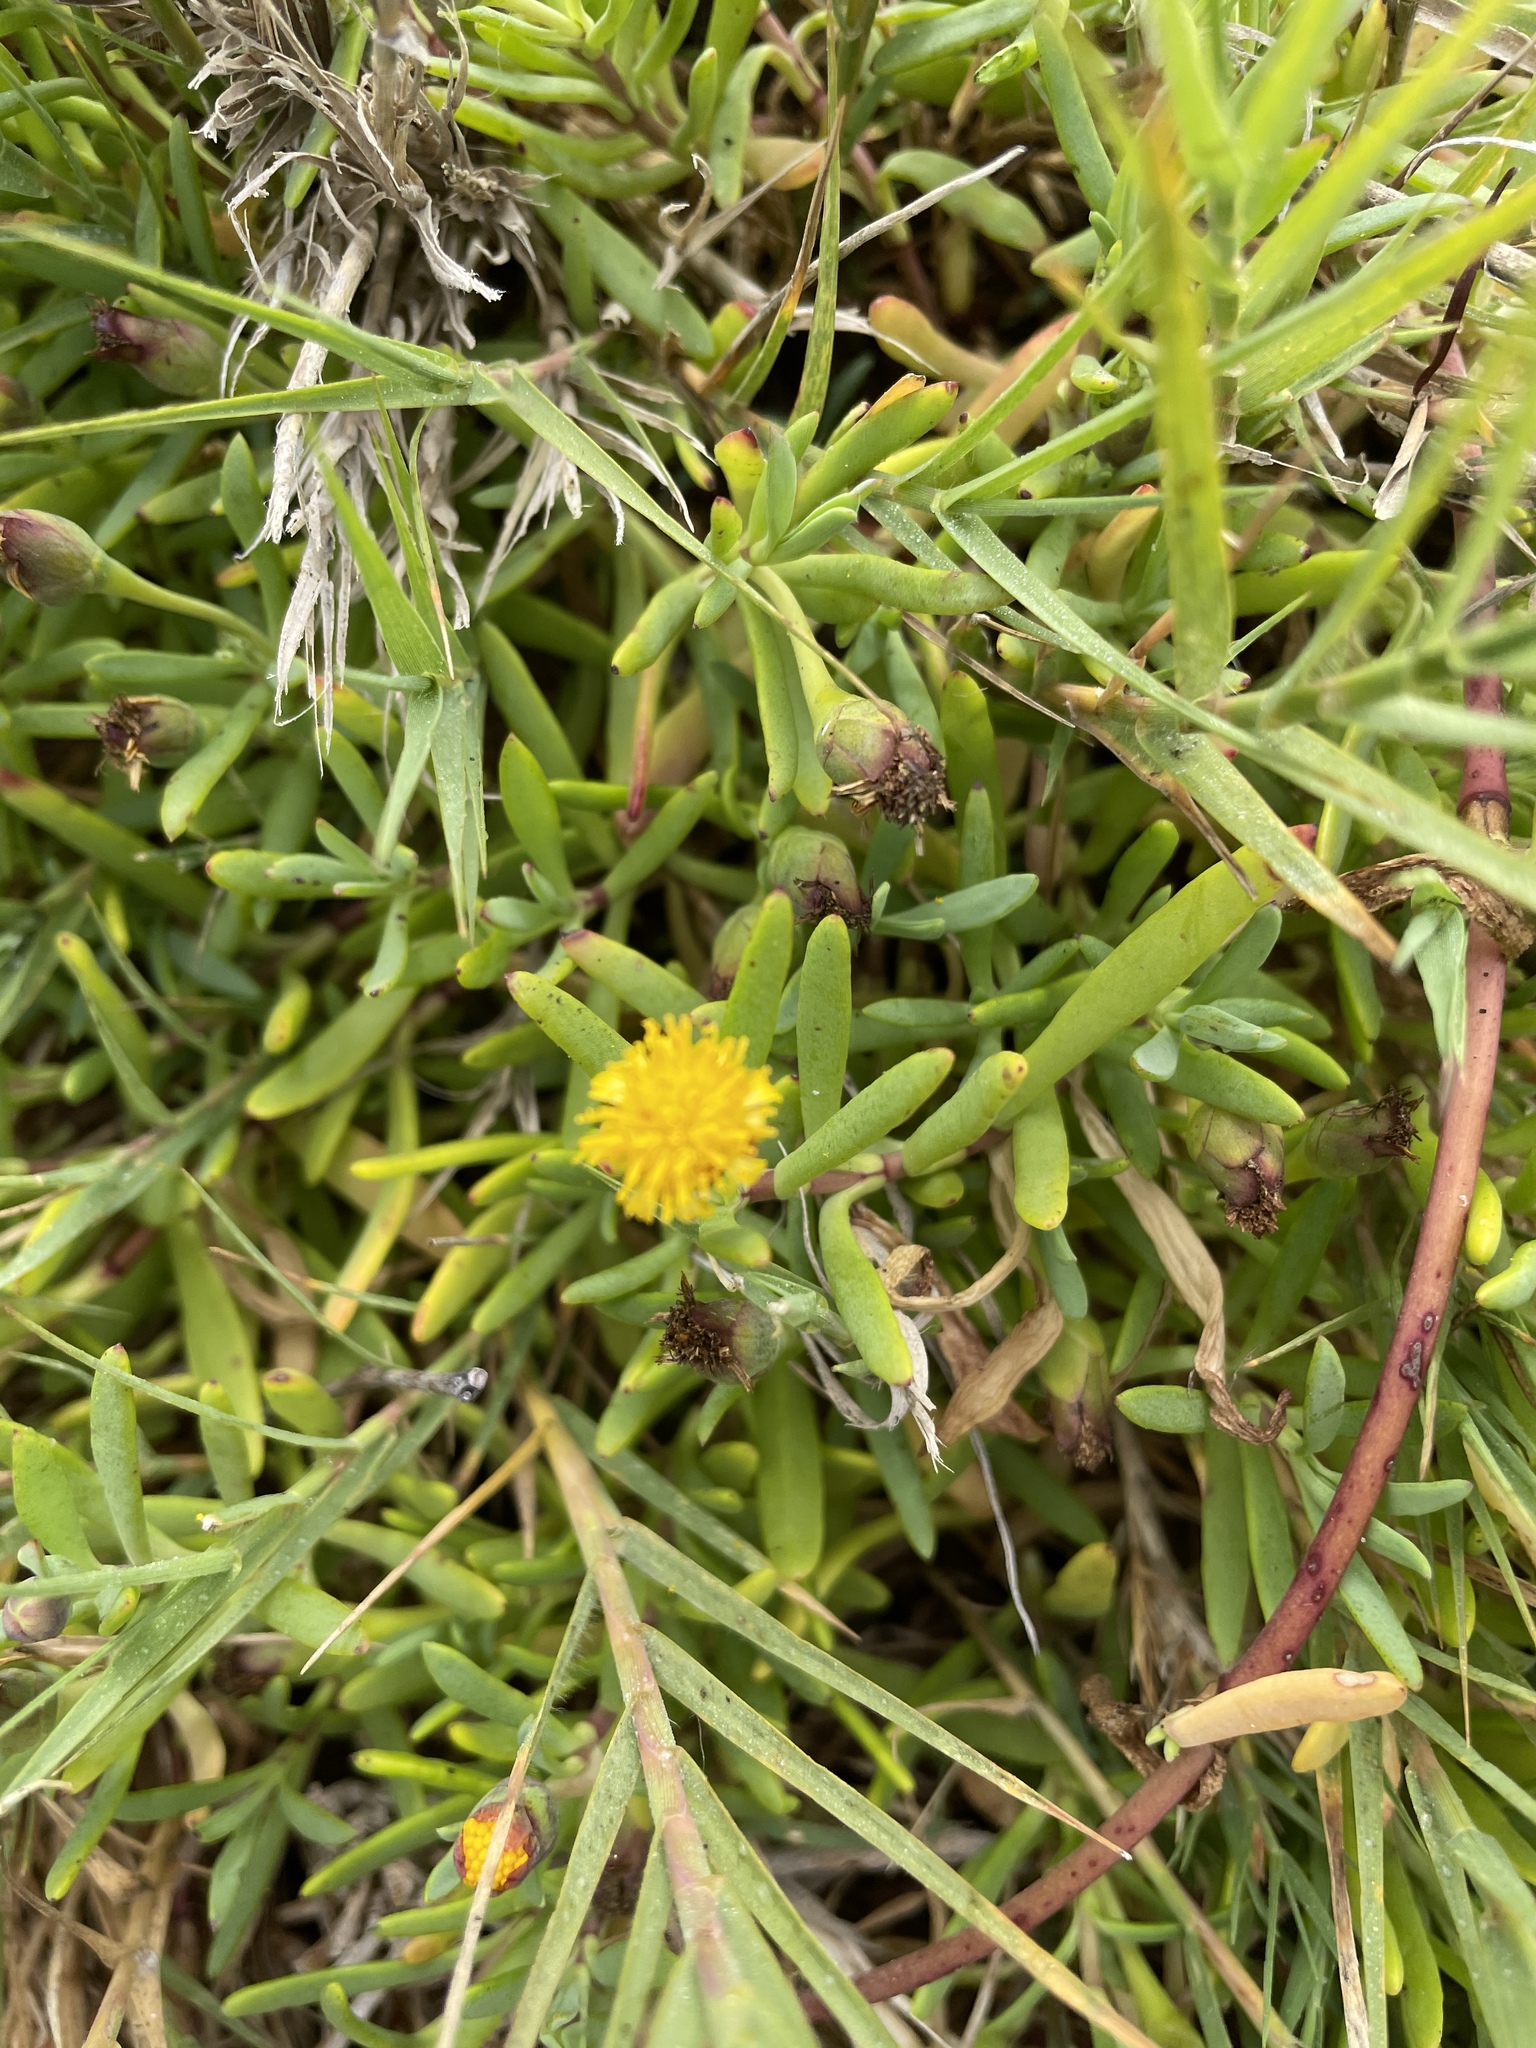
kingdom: Plantae
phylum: Tracheophyta
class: Magnoliopsida
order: Asterales
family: Asteraceae
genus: Jaumea
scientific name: Jaumea carnosa
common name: Fleshy jaumea
